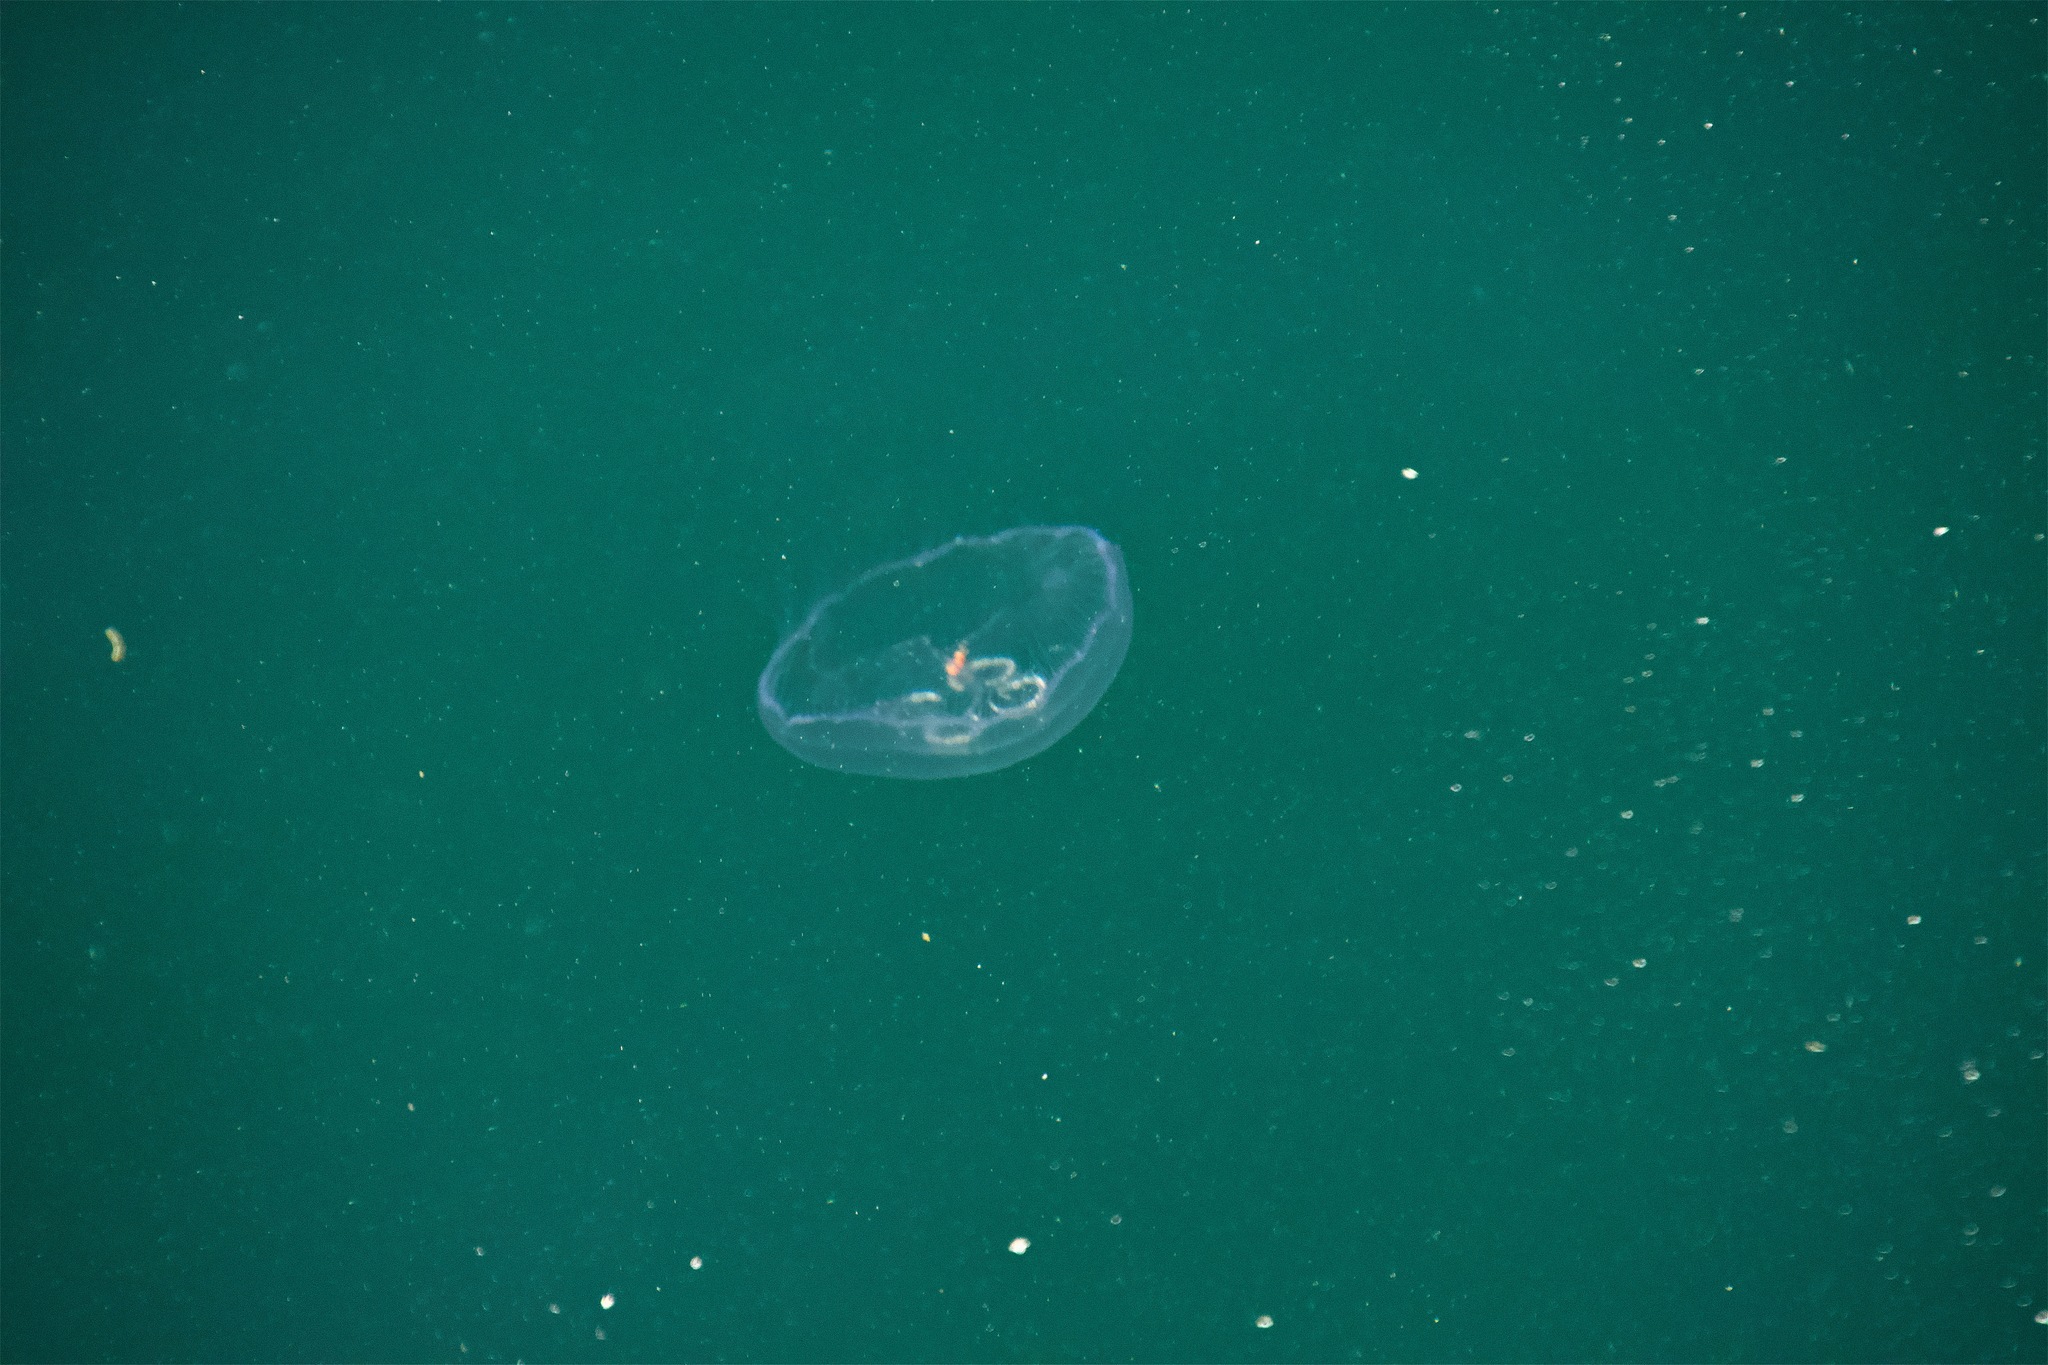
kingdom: Animalia
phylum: Cnidaria
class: Scyphozoa
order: Semaeostomeae
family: Ulmaridae
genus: Aurelia
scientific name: Aurelia aurita
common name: Moon jellyfish
